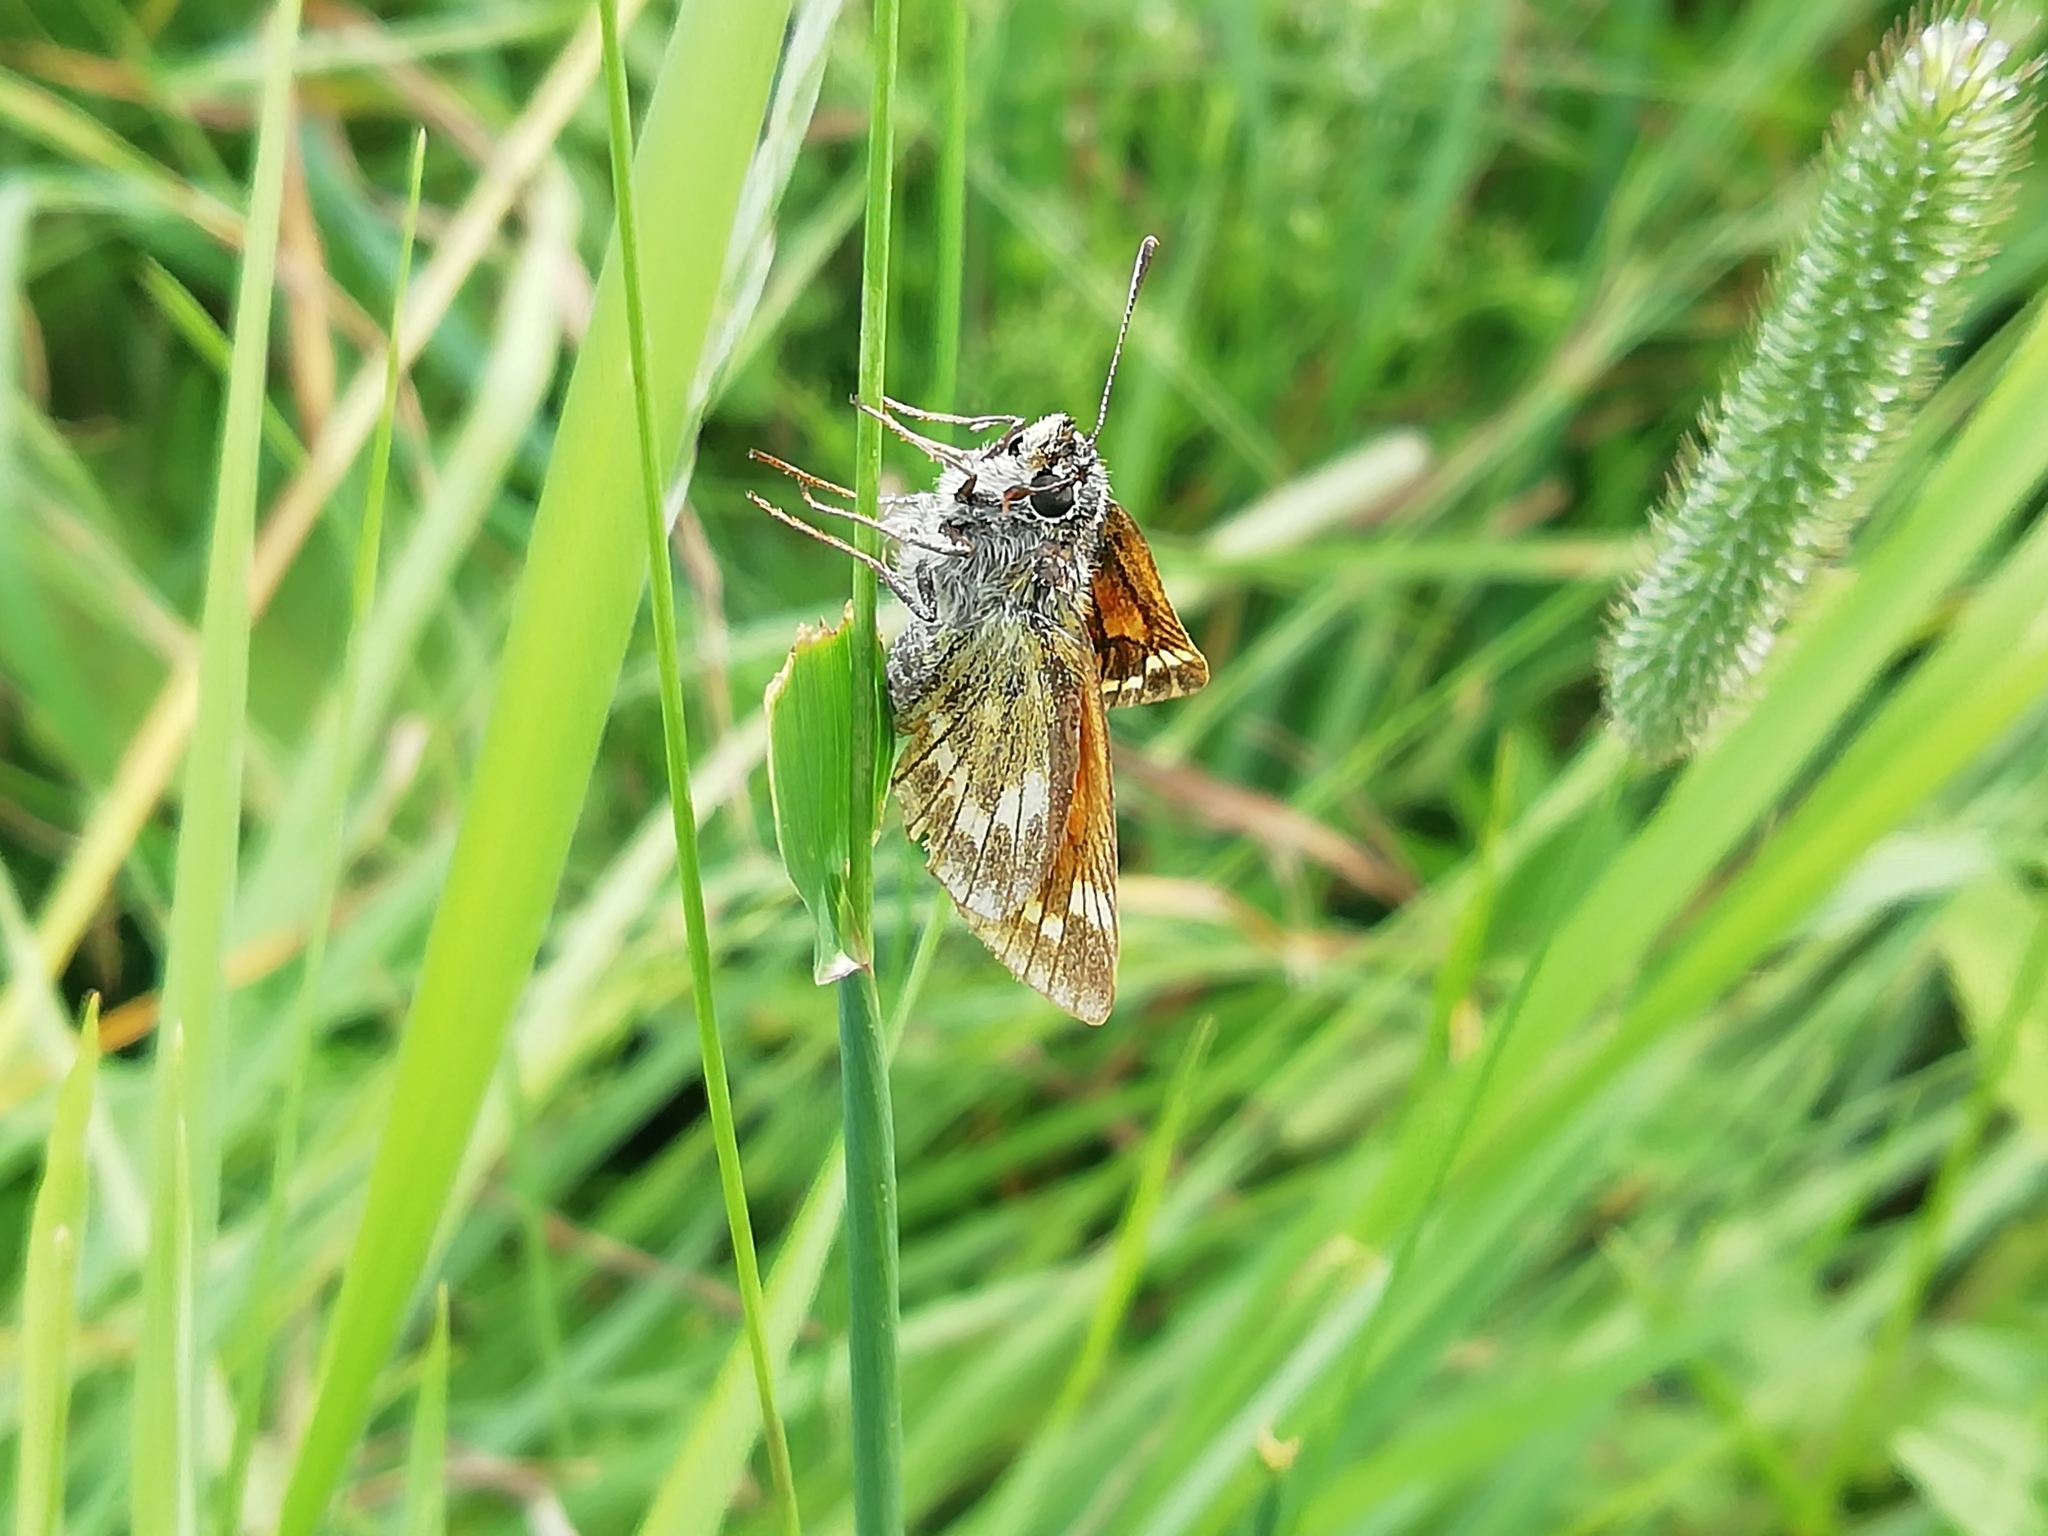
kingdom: Animalia
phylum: Arthropoda
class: Insecta
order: Lepidoptera
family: Hesperiidae
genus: Ochlodes
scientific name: Ochlodes venata
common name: Large skipper
